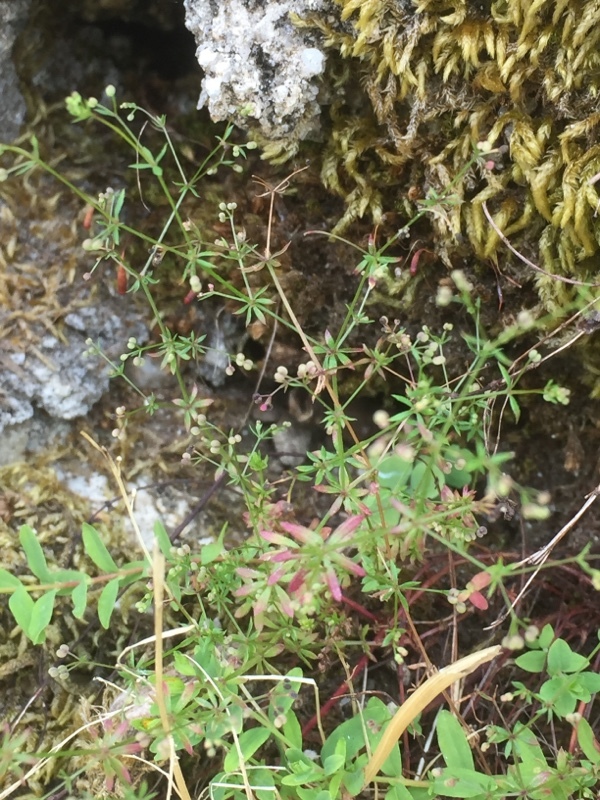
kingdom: Plantae
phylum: Tracheophyta
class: Magnoliopsida
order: Gentianales
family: Rubiaceae
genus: Galium
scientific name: Galium parisiense
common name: Wall bedstraw
